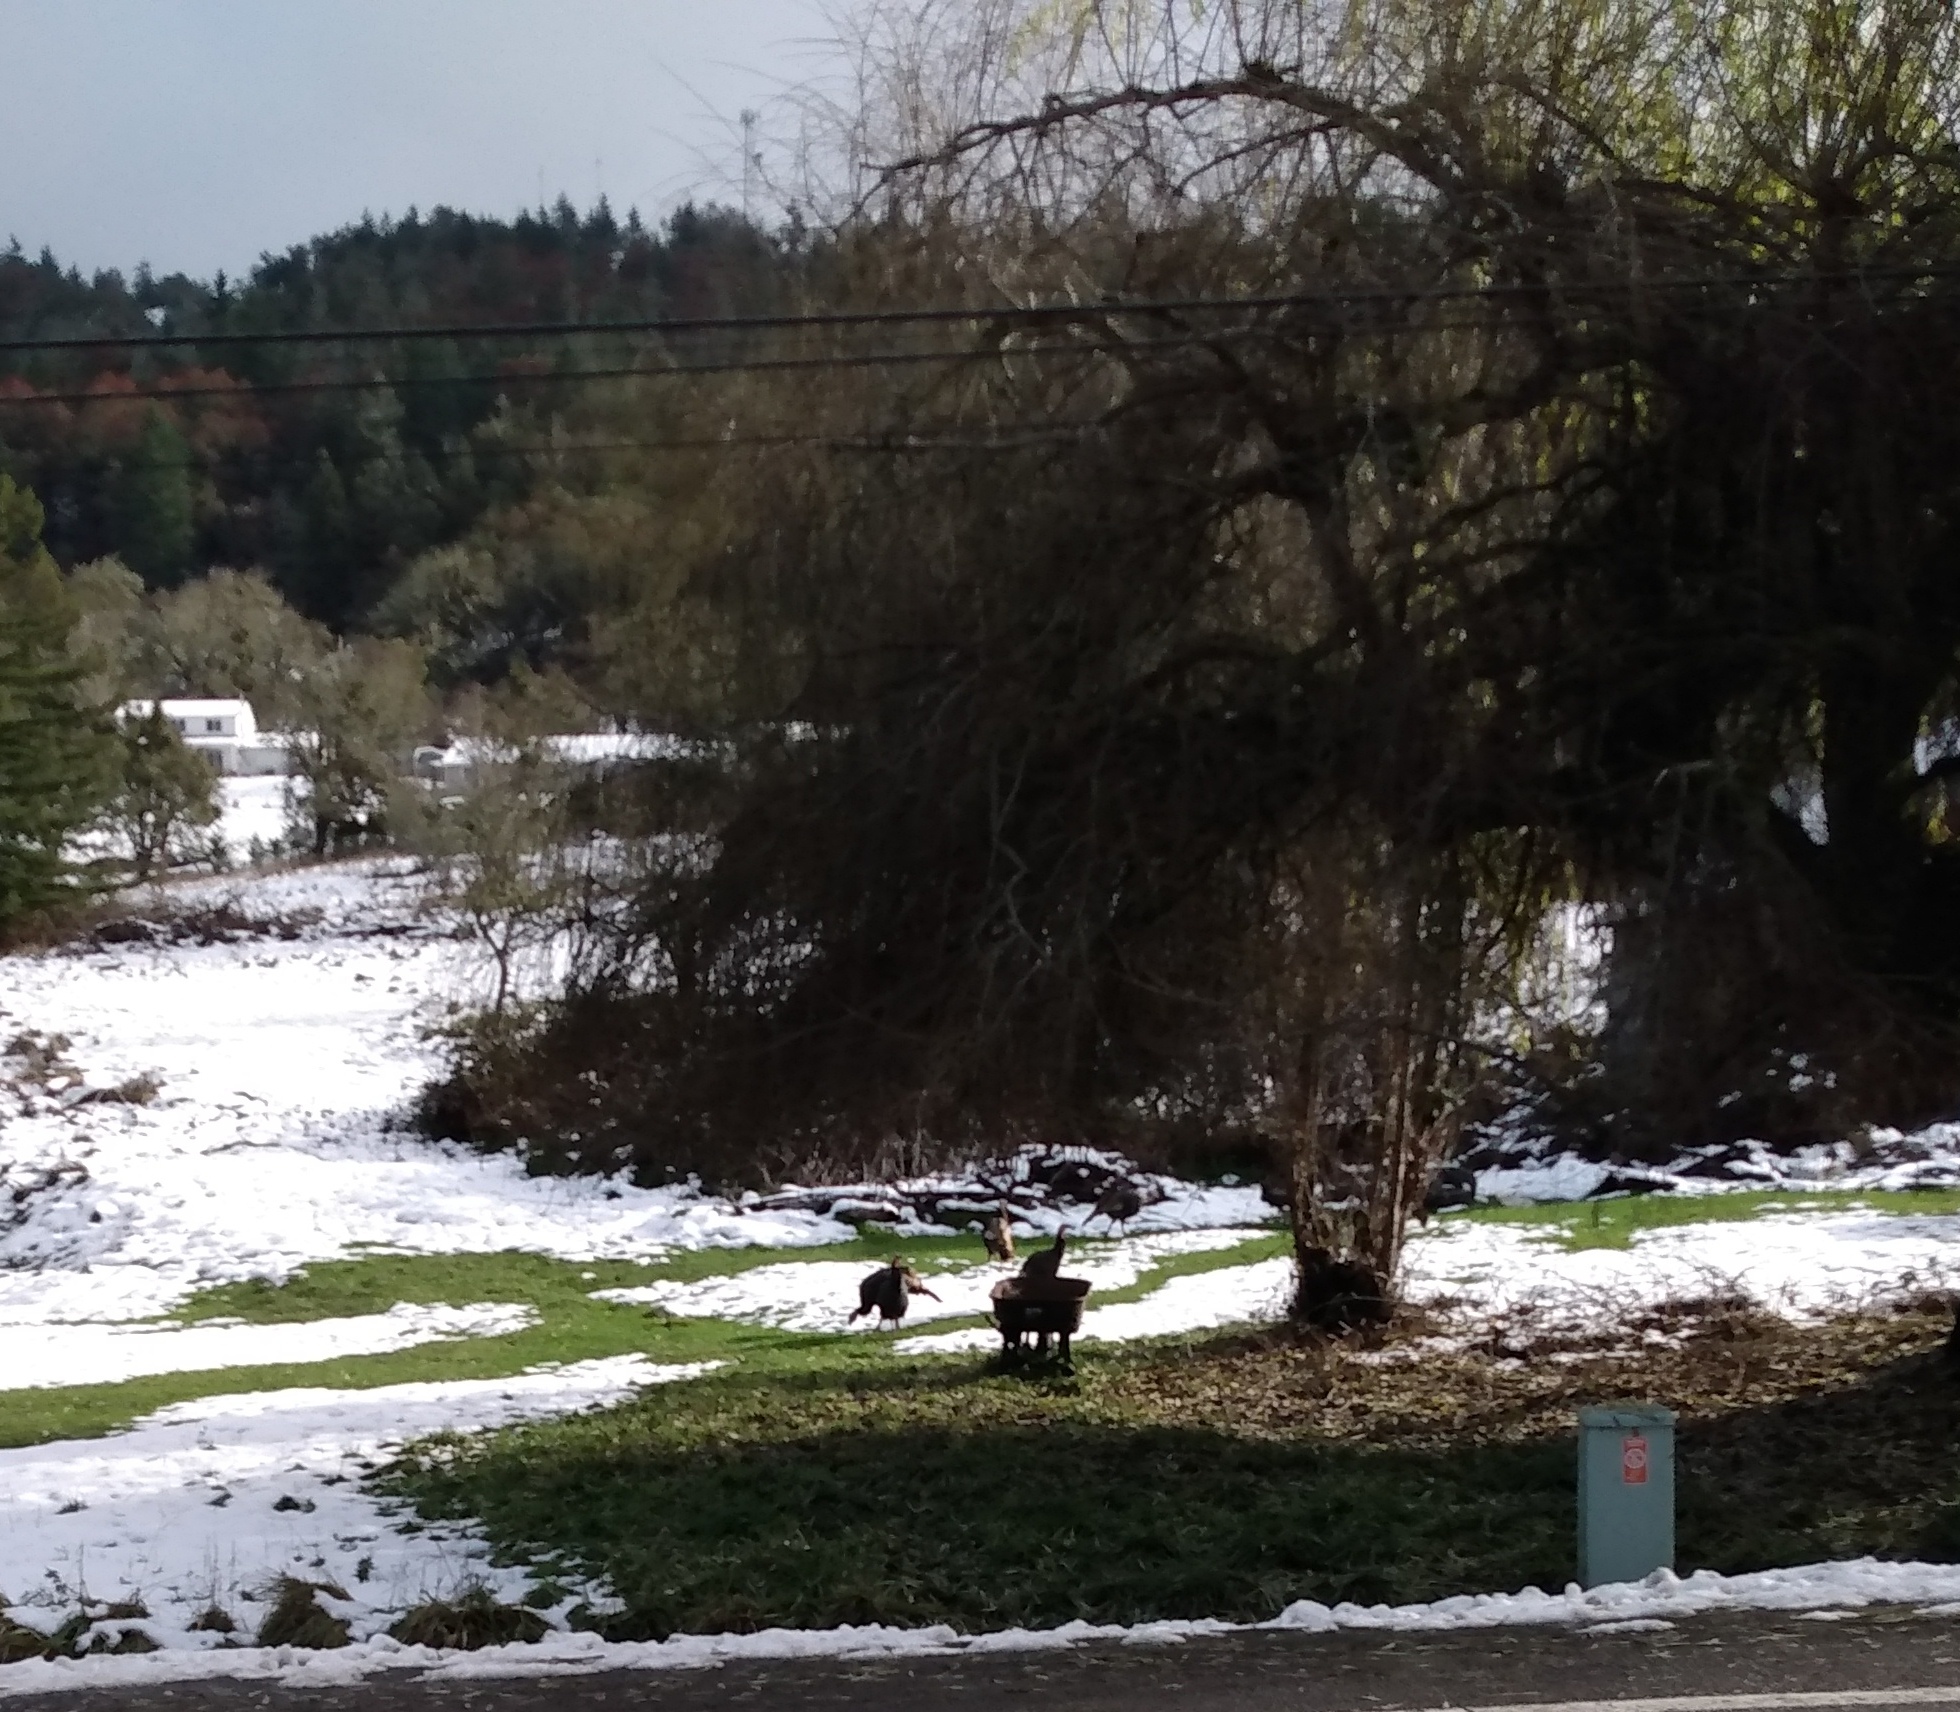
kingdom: Animalia
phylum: Chordata
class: Aves
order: Galliformes
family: Phasianidae
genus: Meleagris
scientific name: Meleagris gallopavo
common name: Wild turkey
